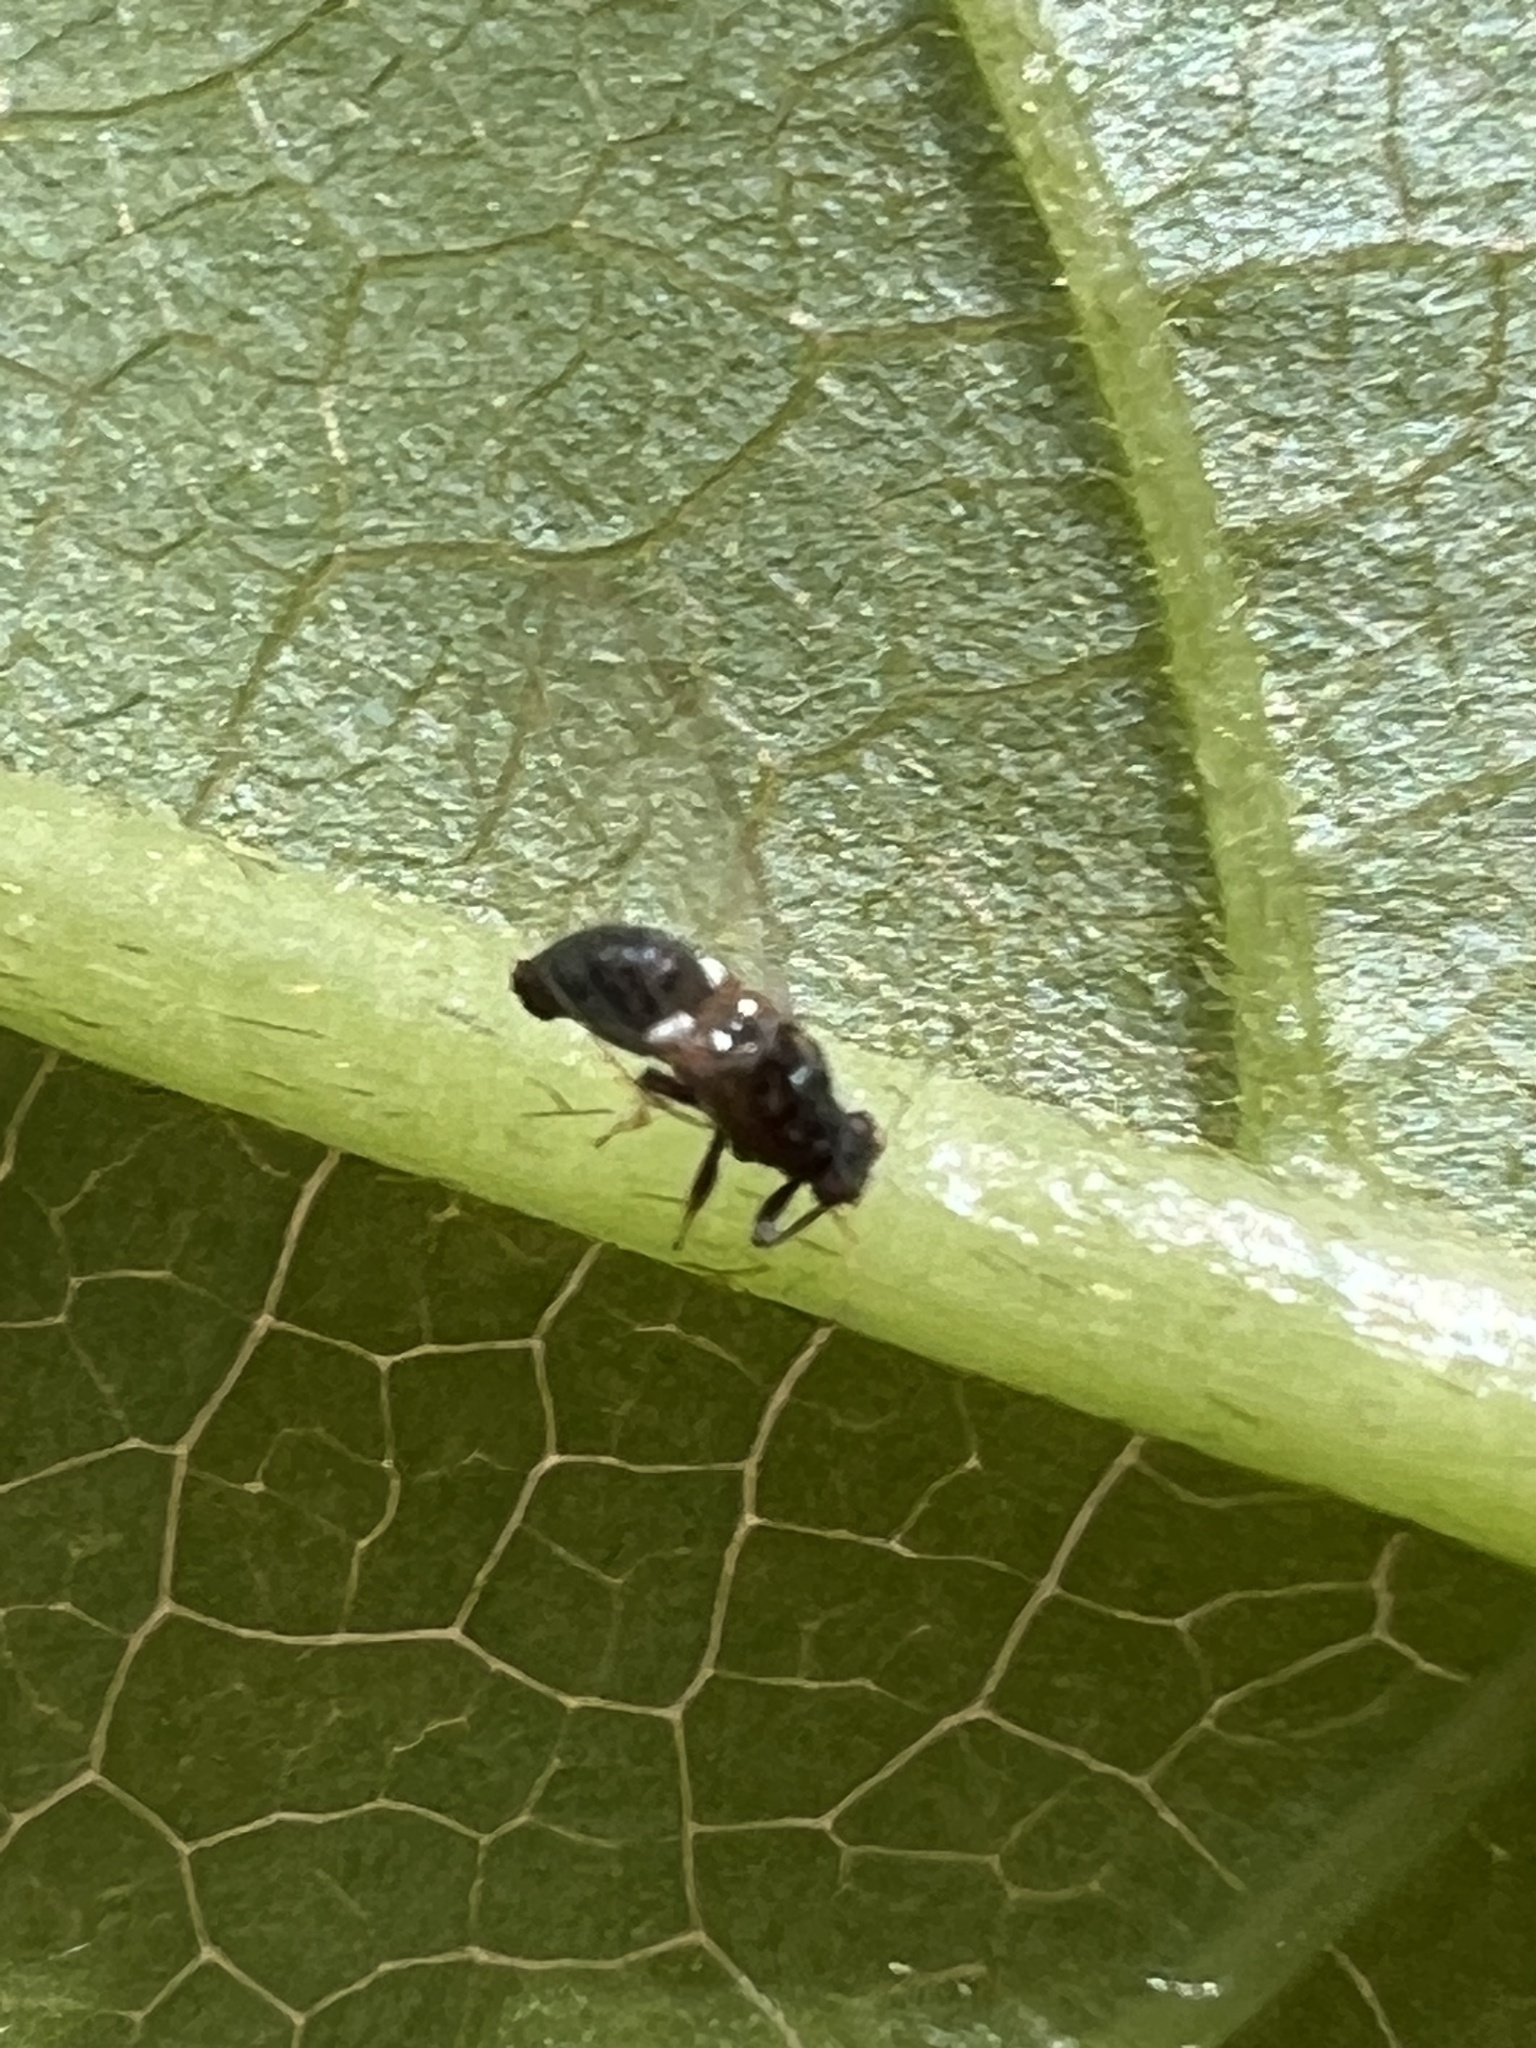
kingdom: Animalia
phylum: Arthropoda
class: Insecta
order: Hemiptera
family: Triozidae
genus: Baeoalitriozus
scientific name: Baeoalitriozus diospyri
